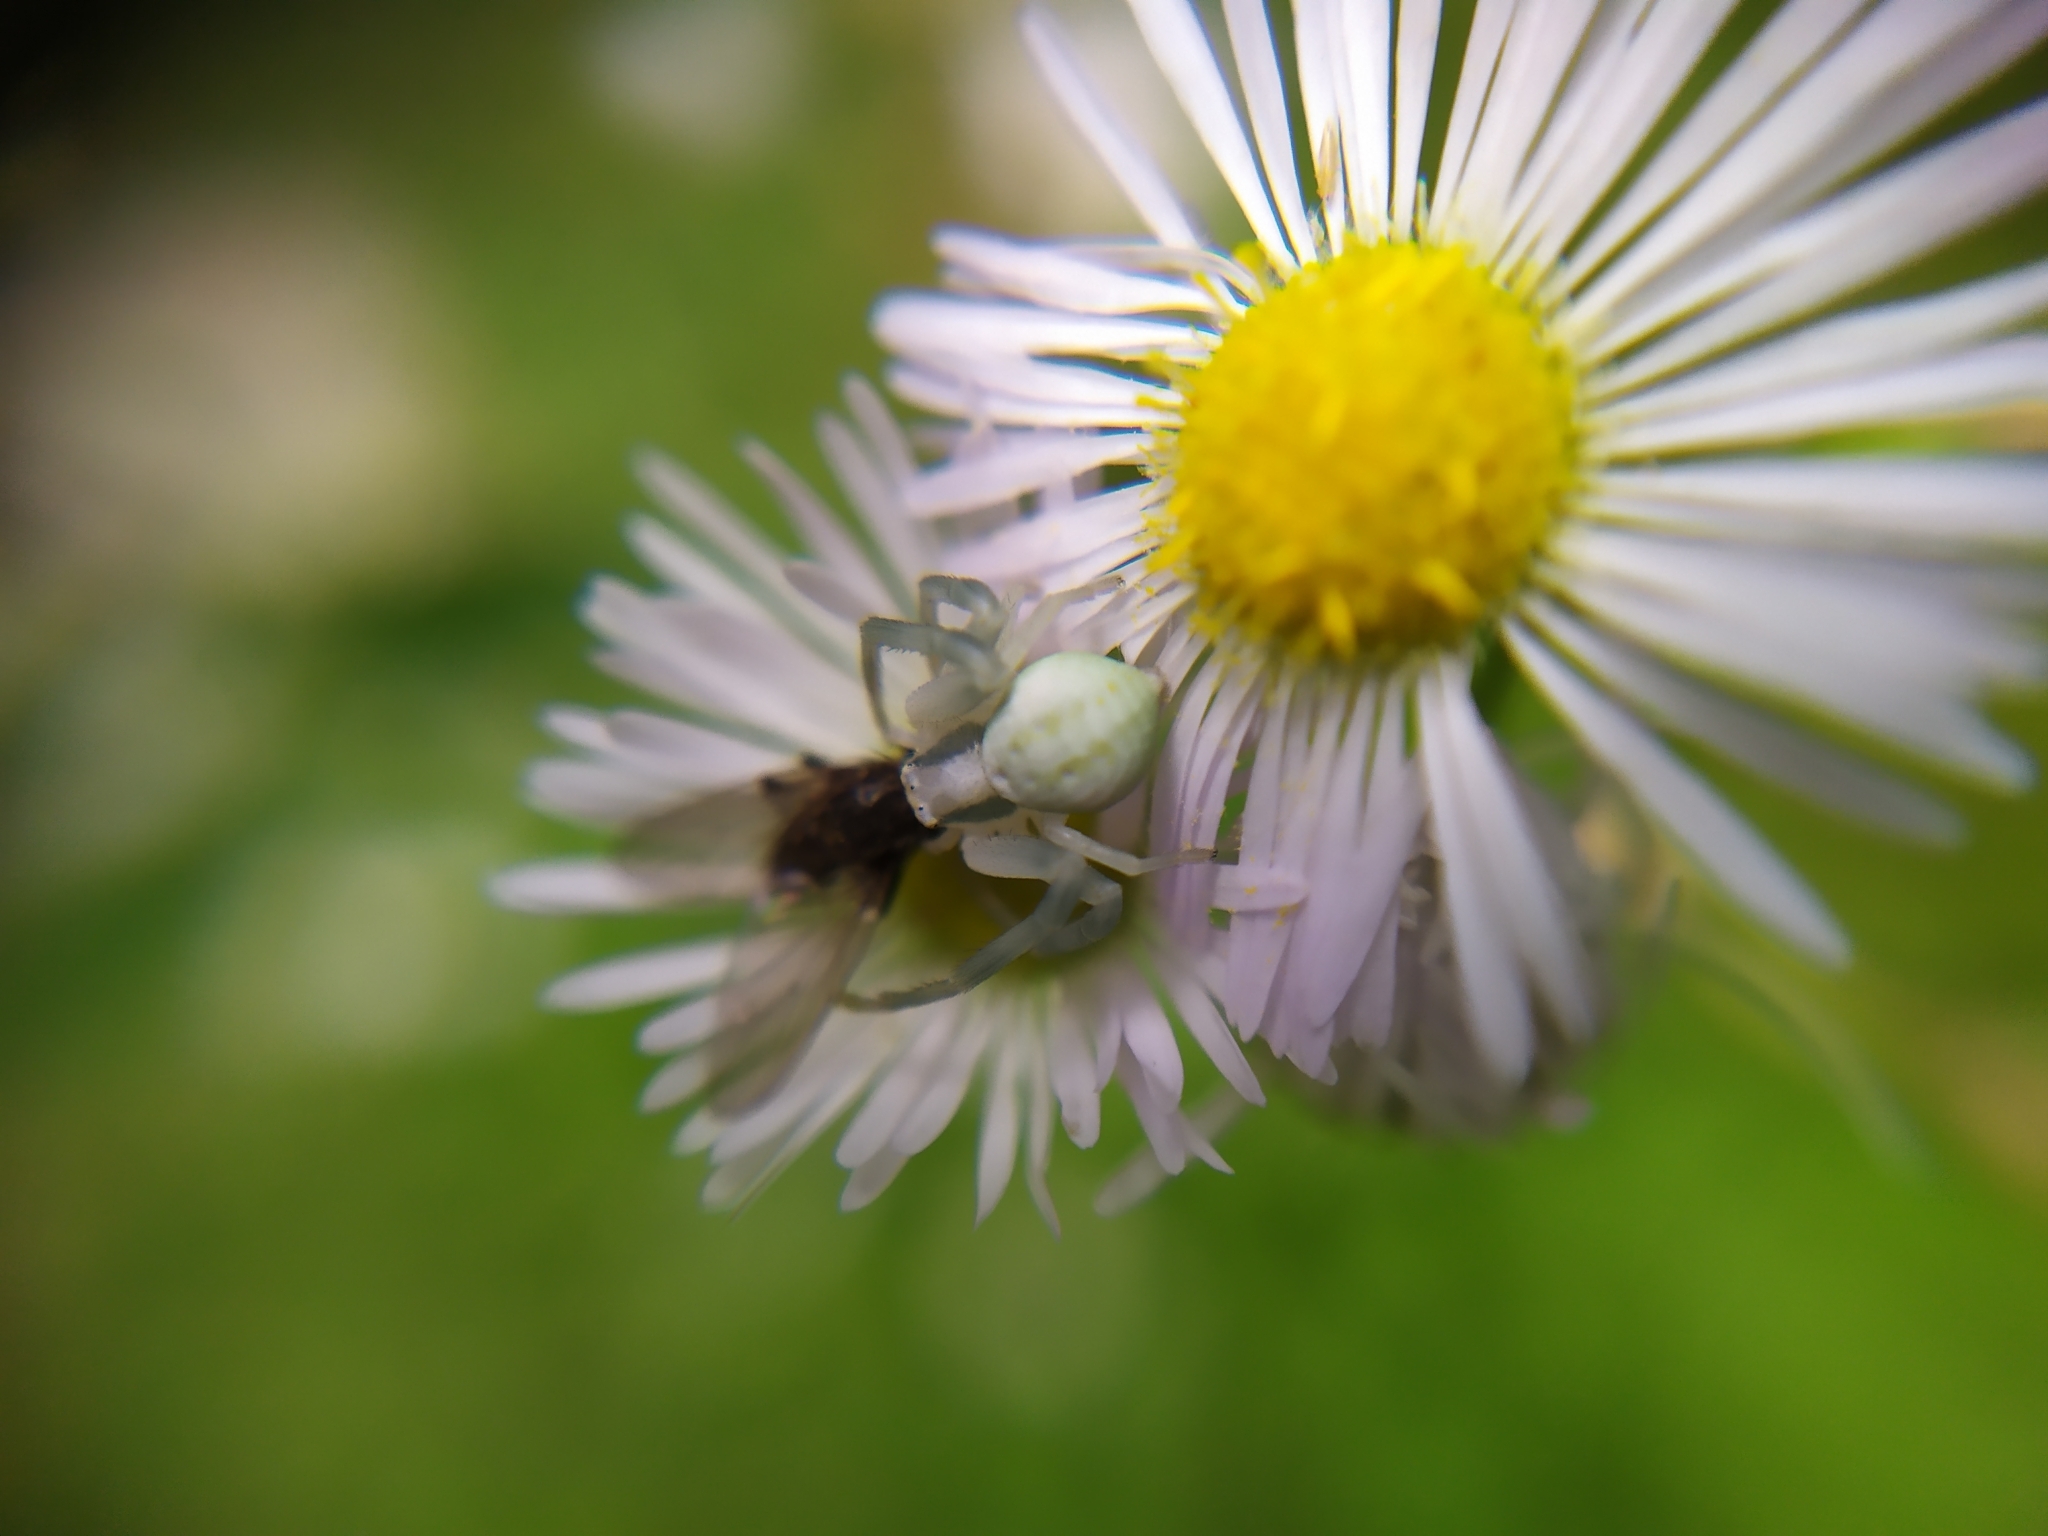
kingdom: Animalia
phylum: Arthropoda
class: Arachnida
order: Araneae
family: Thomisidae
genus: Misumena
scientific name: Misumena vatia
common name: Goldenrod crab spider
